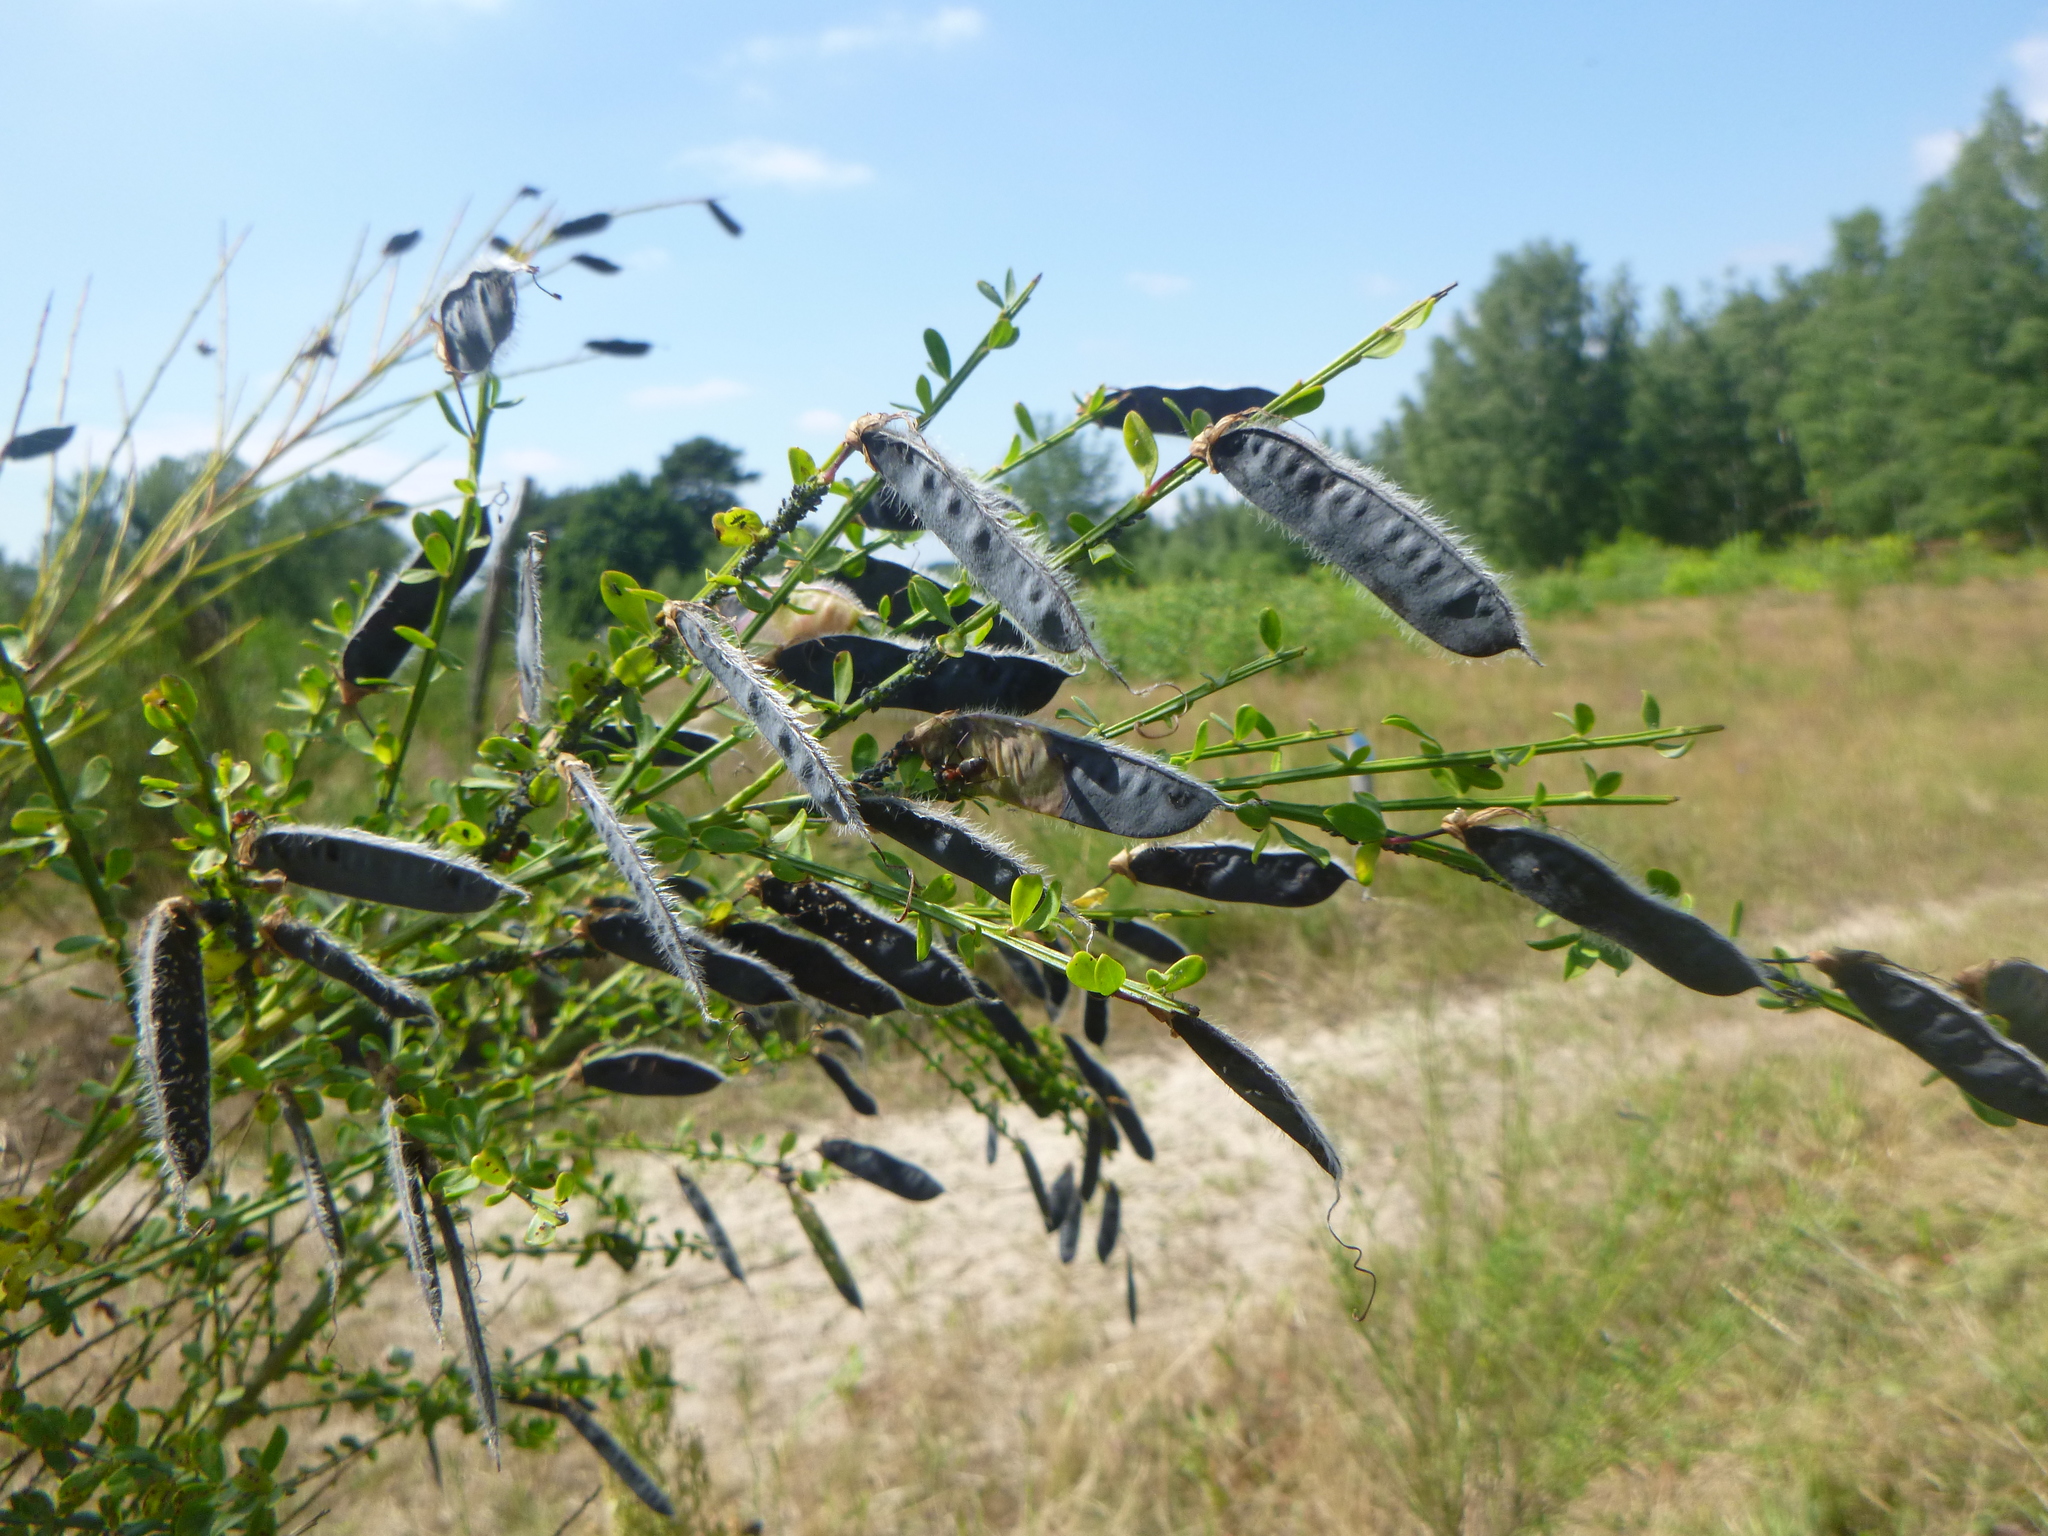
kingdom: Plantae
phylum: Tracheophyta
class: Magnoliopsida
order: Fabales
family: Fabaceae
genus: Cytisus
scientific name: Cytisus scoparius
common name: Scotch broom
